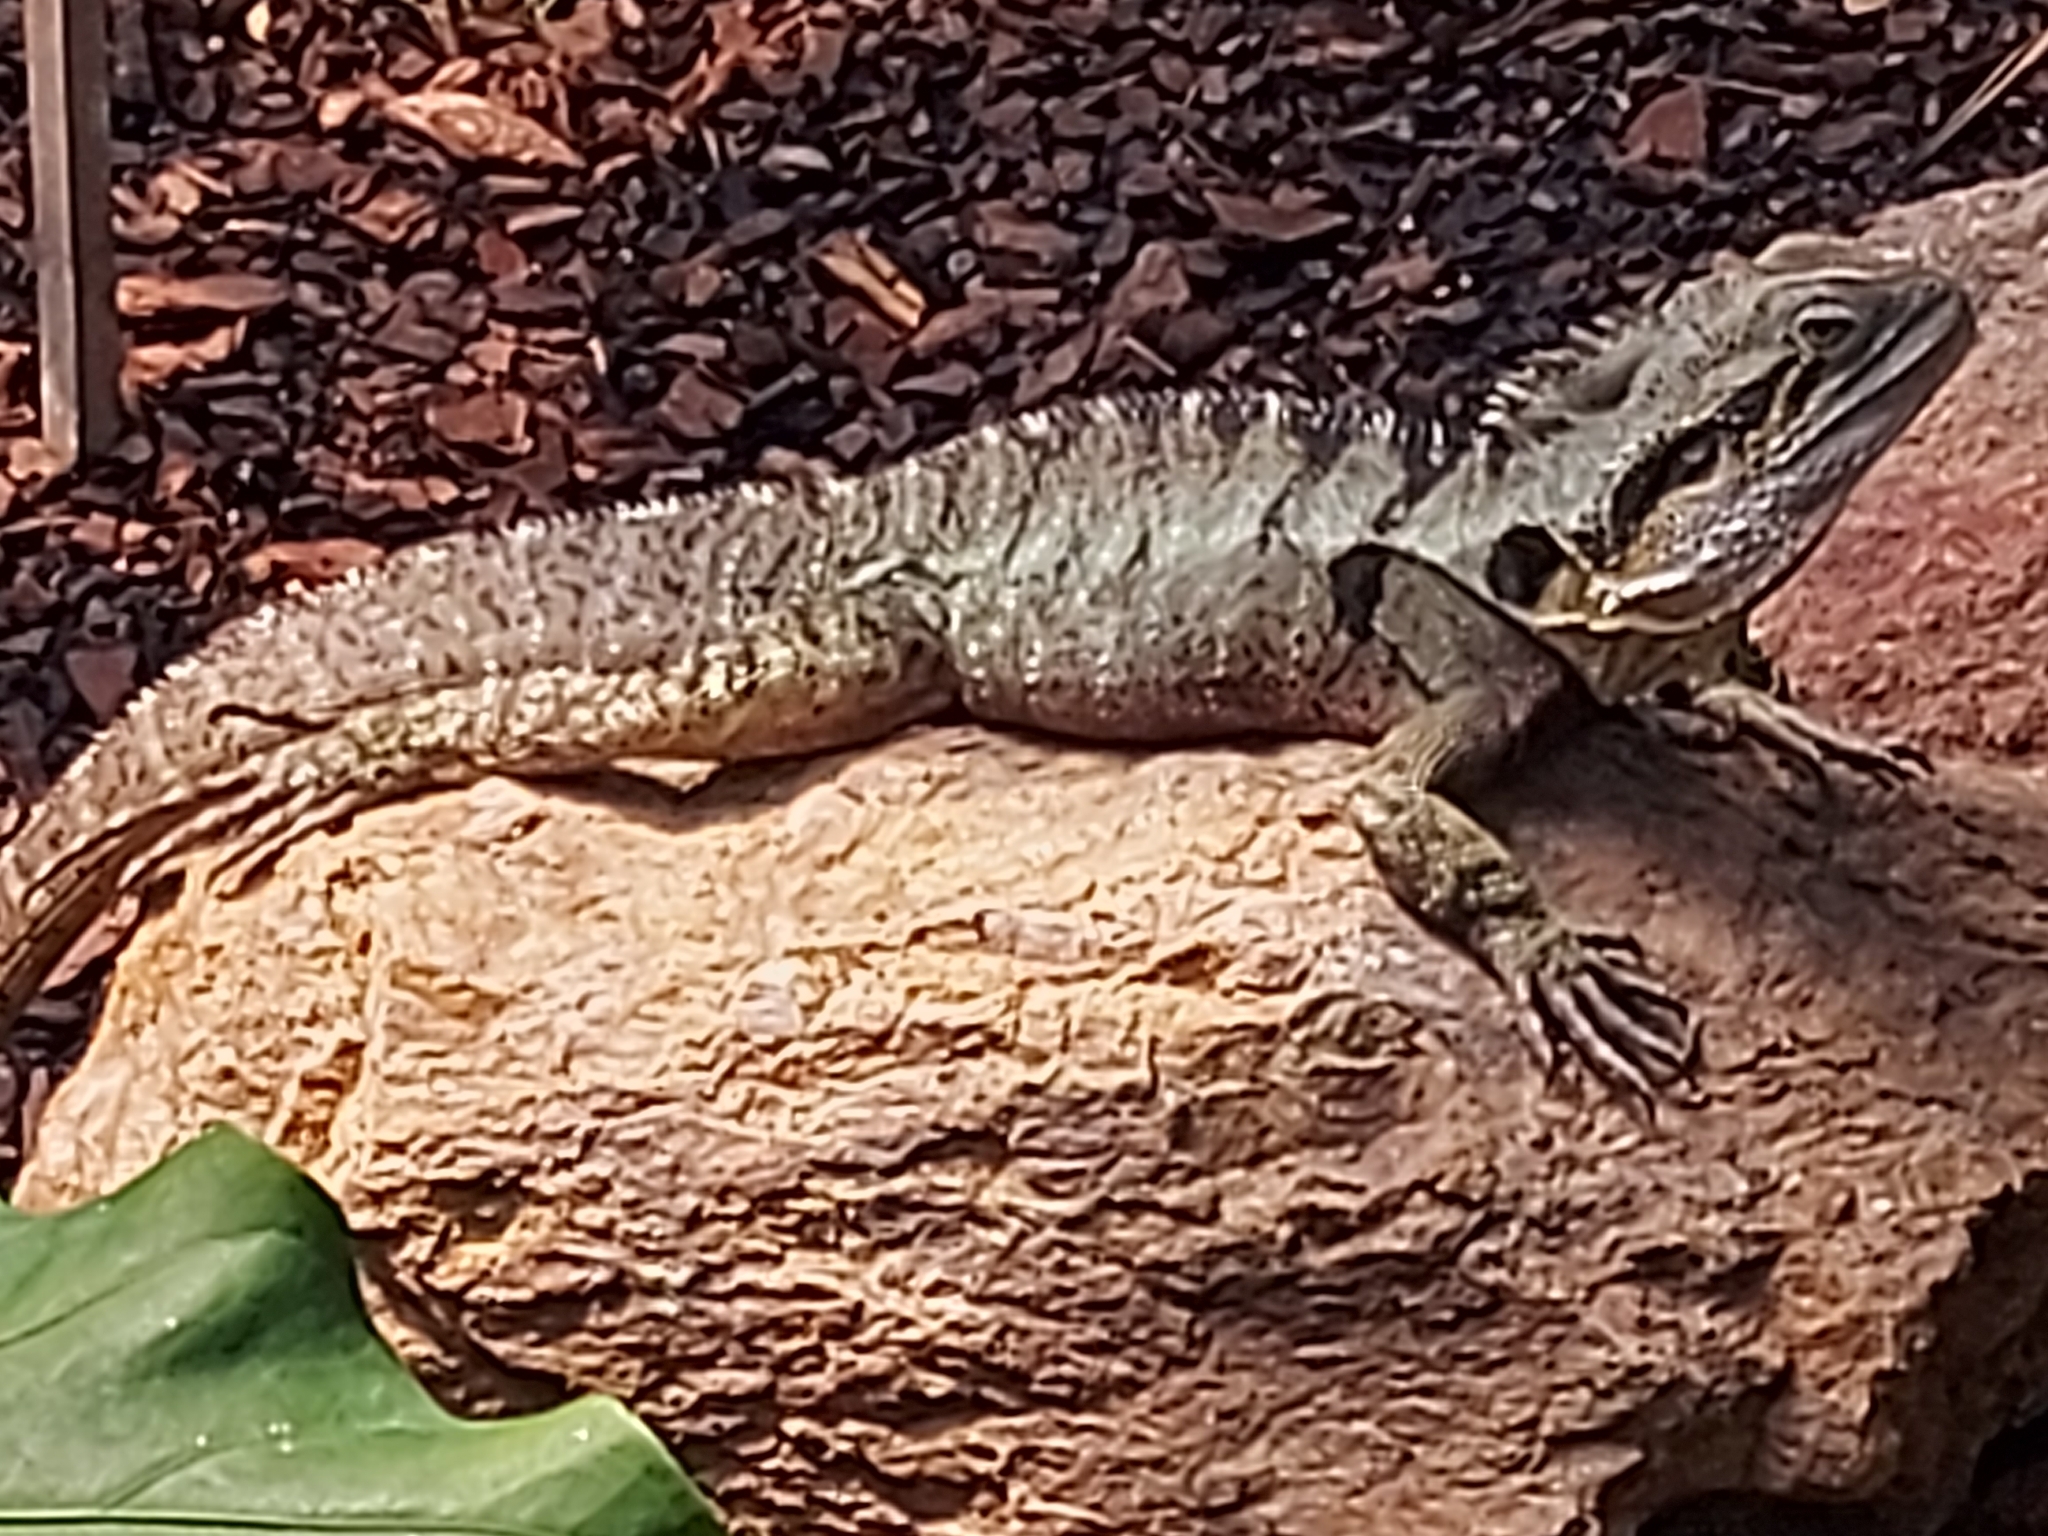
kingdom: Animalia
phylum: Chordata
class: Squamata
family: Agamidae
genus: Intellagama
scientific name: Intellagama lesueurii
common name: Eastern water dragon
